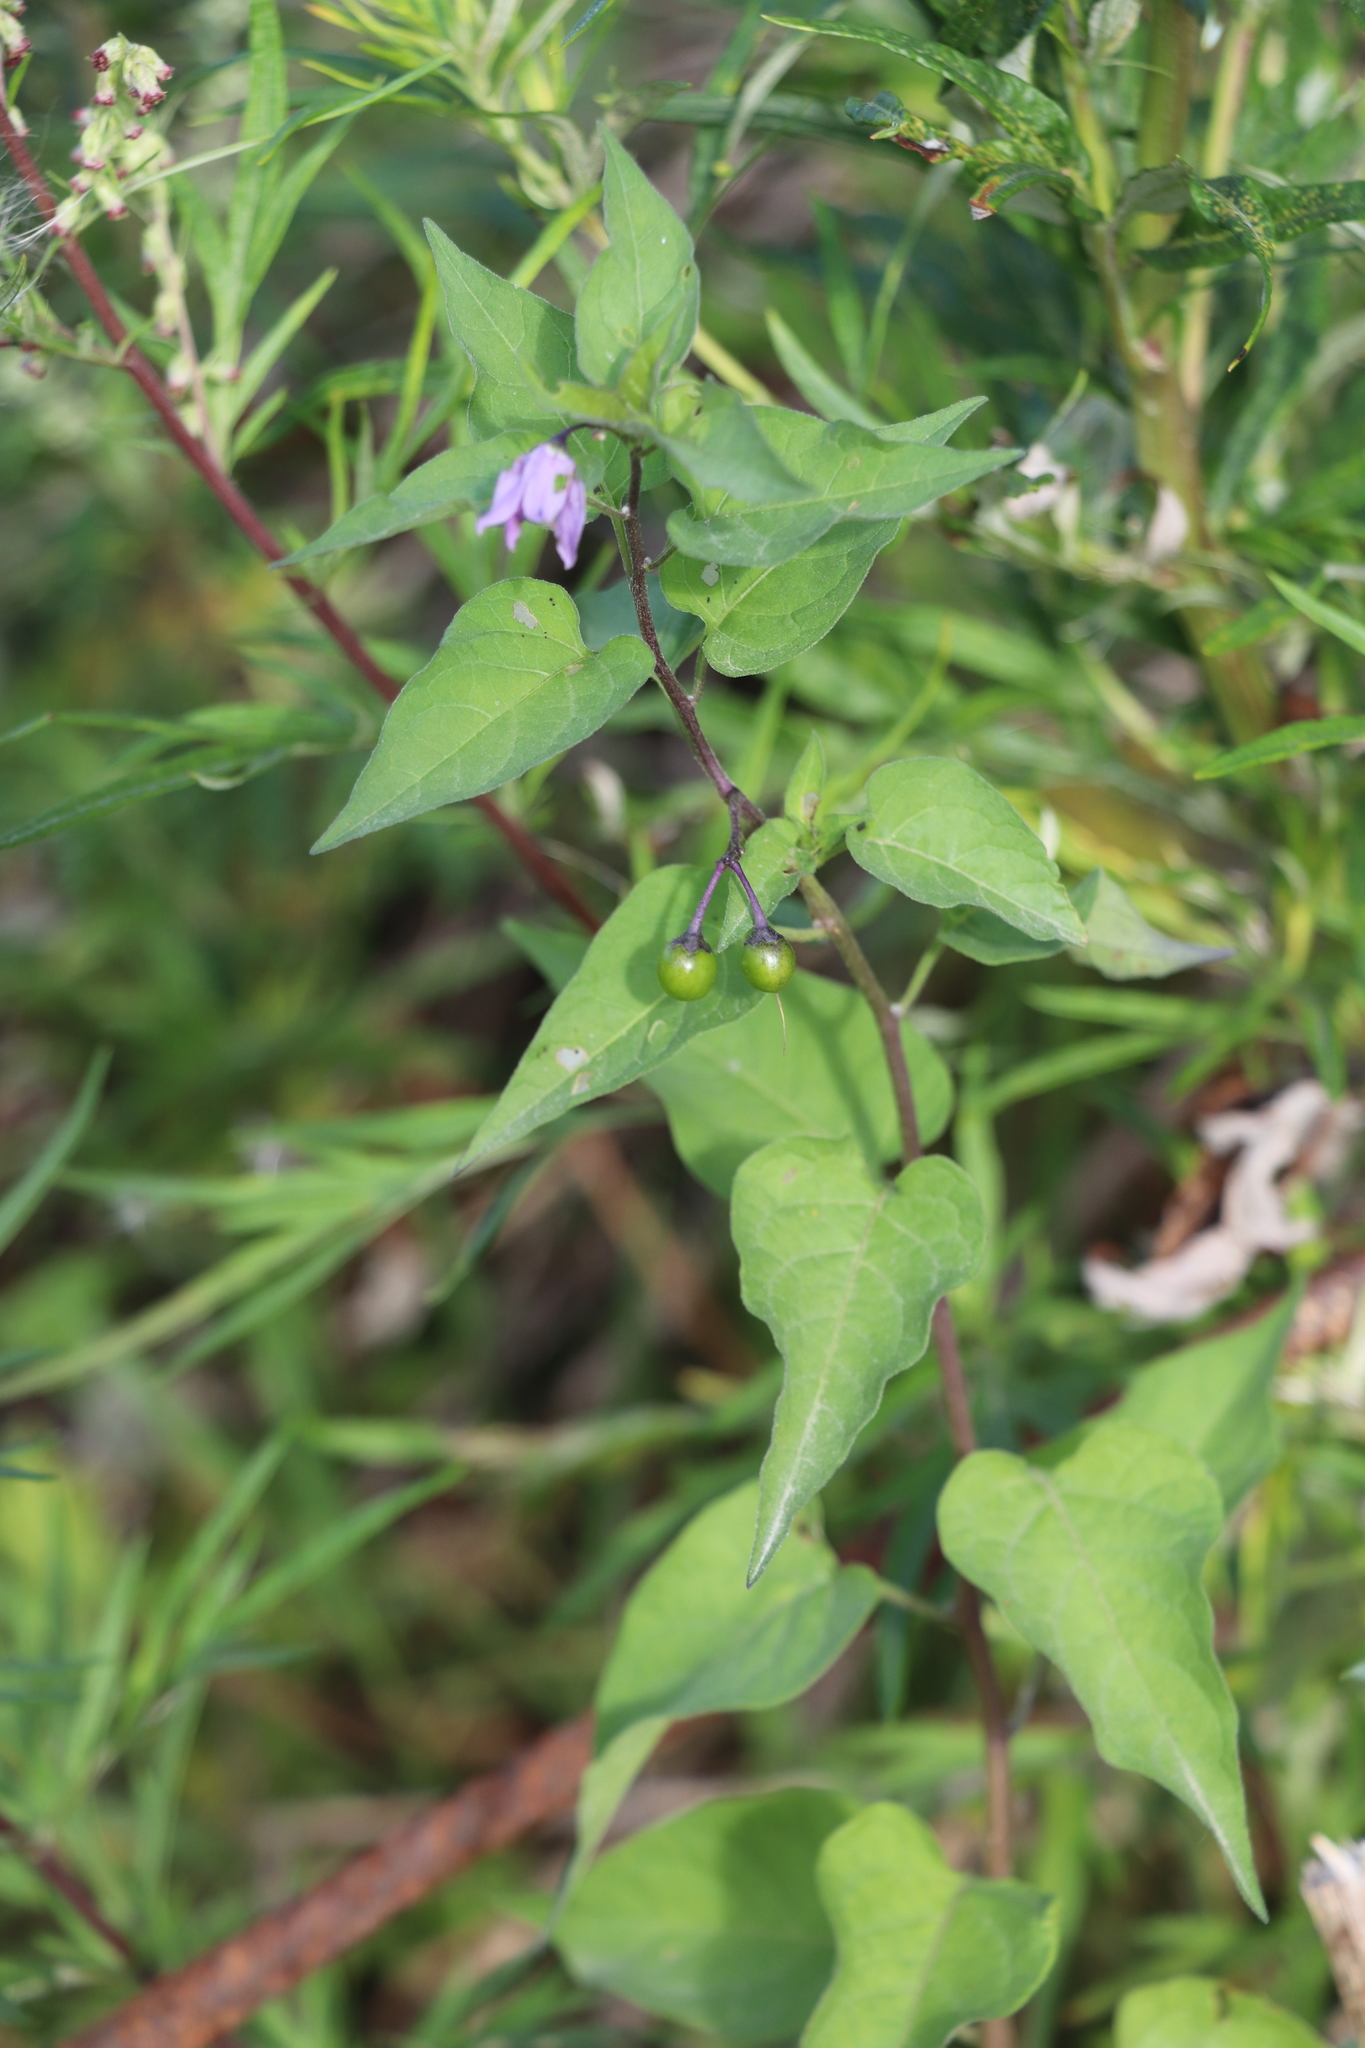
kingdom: Plantae
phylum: Tracheophyta
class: Magnoliopsida
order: Solanales
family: Solanaceae
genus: Solanum
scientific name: Solanum dulcamara
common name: Climbing nightshade
